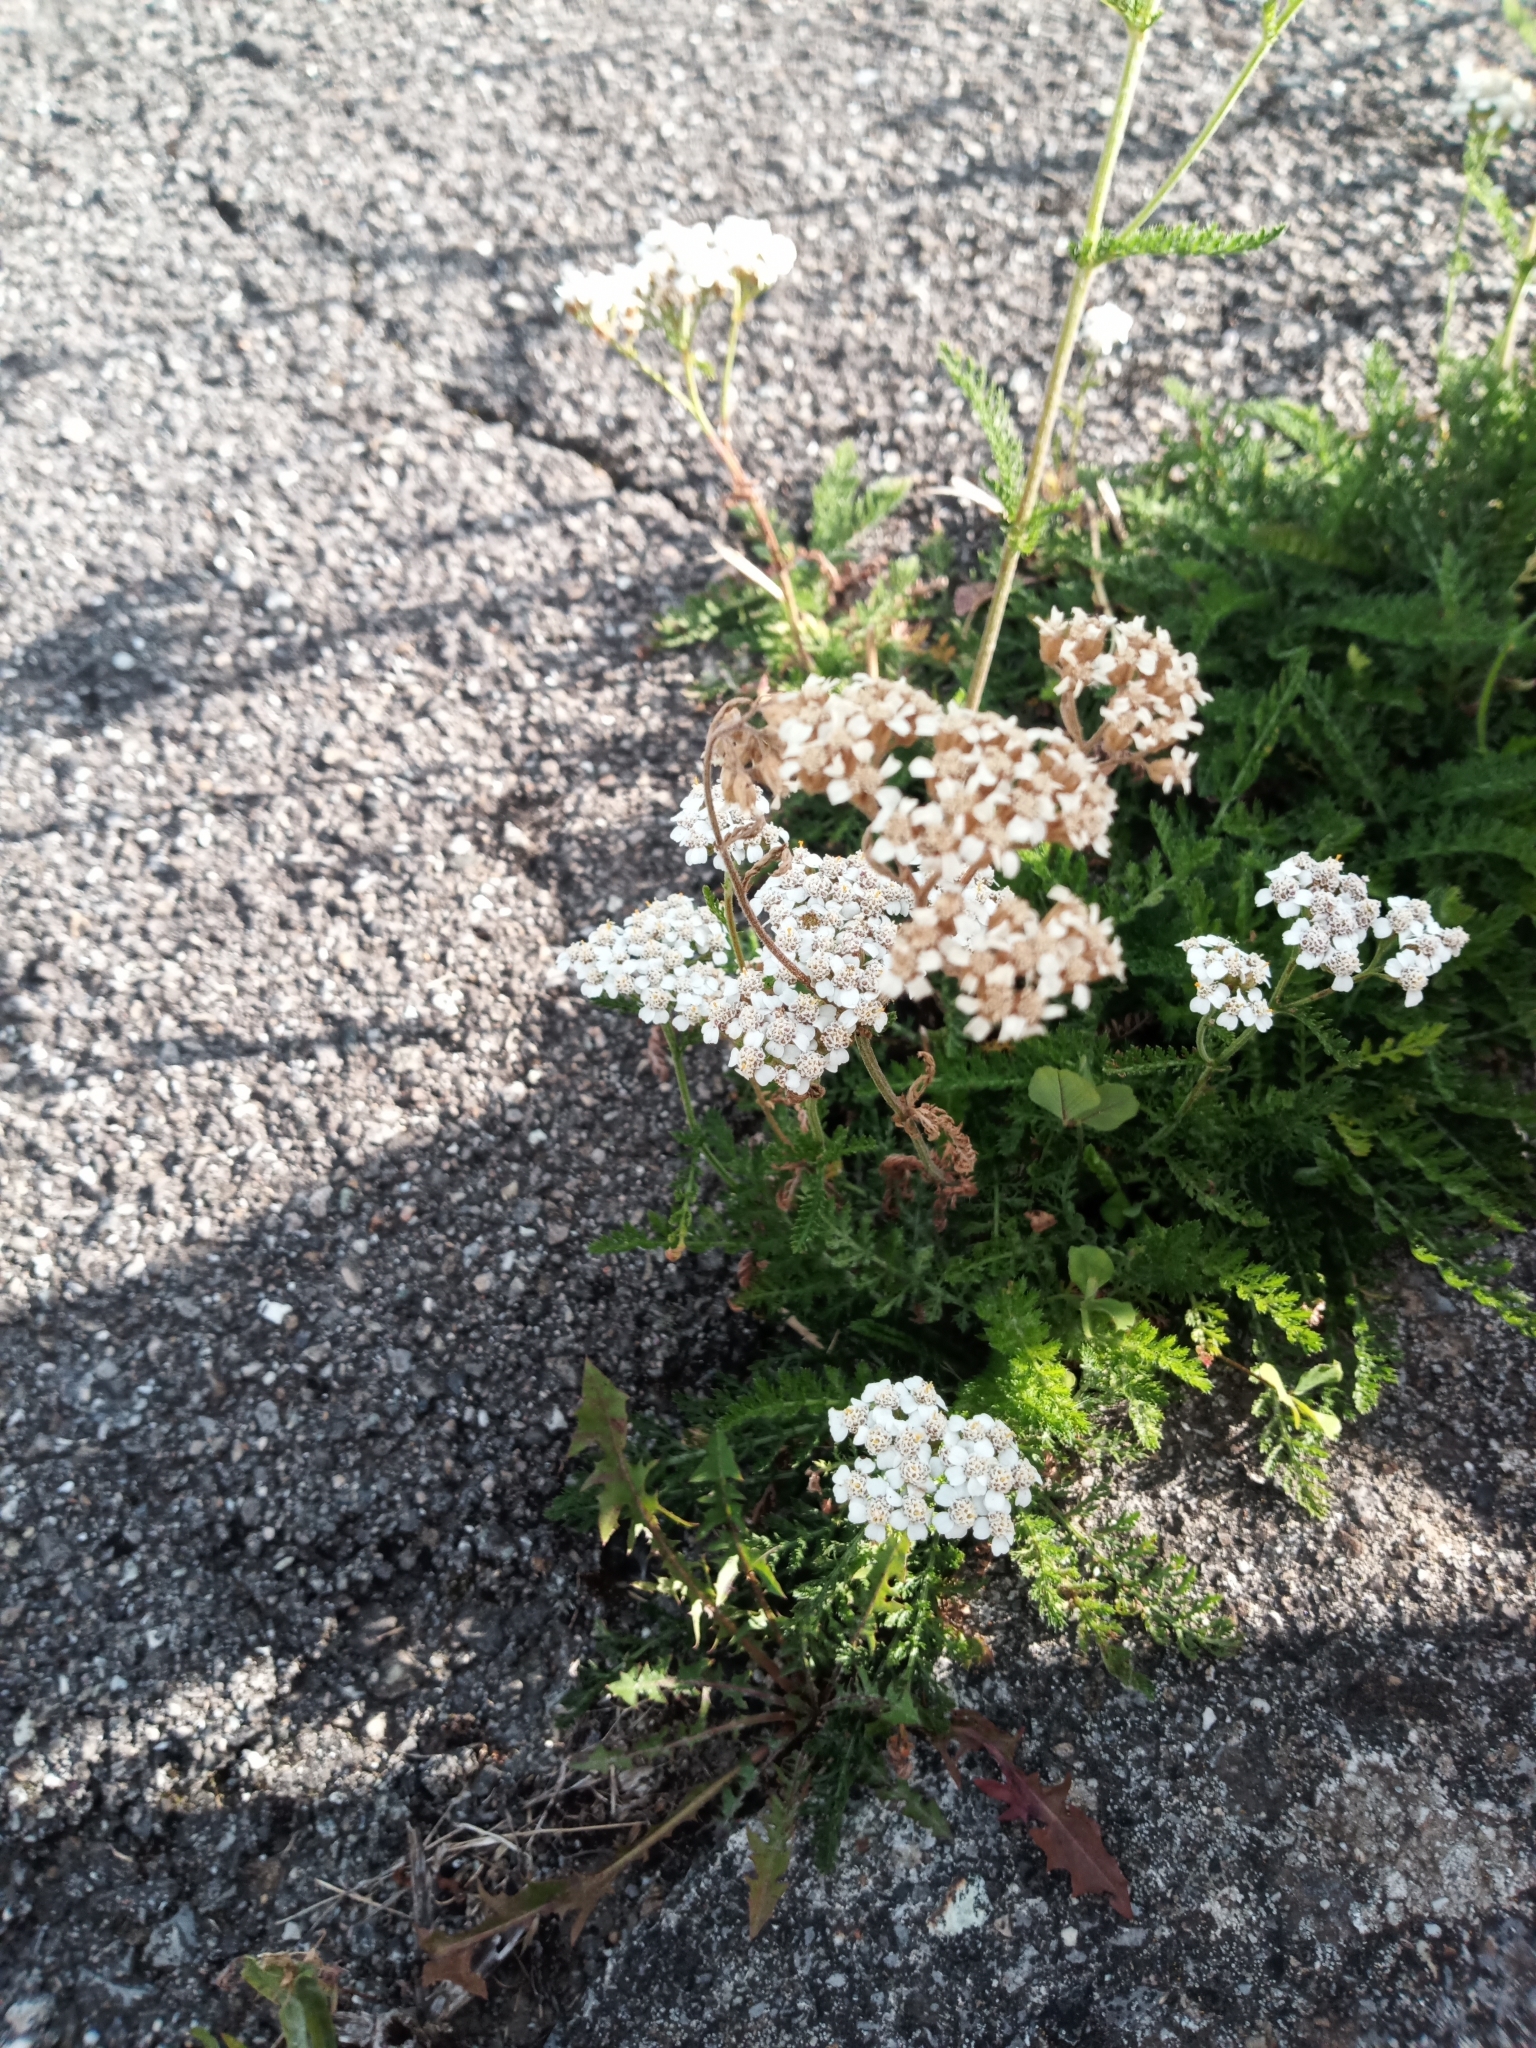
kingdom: Plantae
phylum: Tracheophyta
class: Magnoliopsida
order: Asterales
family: Asteraceae
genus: Achillea
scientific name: Achillea millefolium
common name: Yarrow
